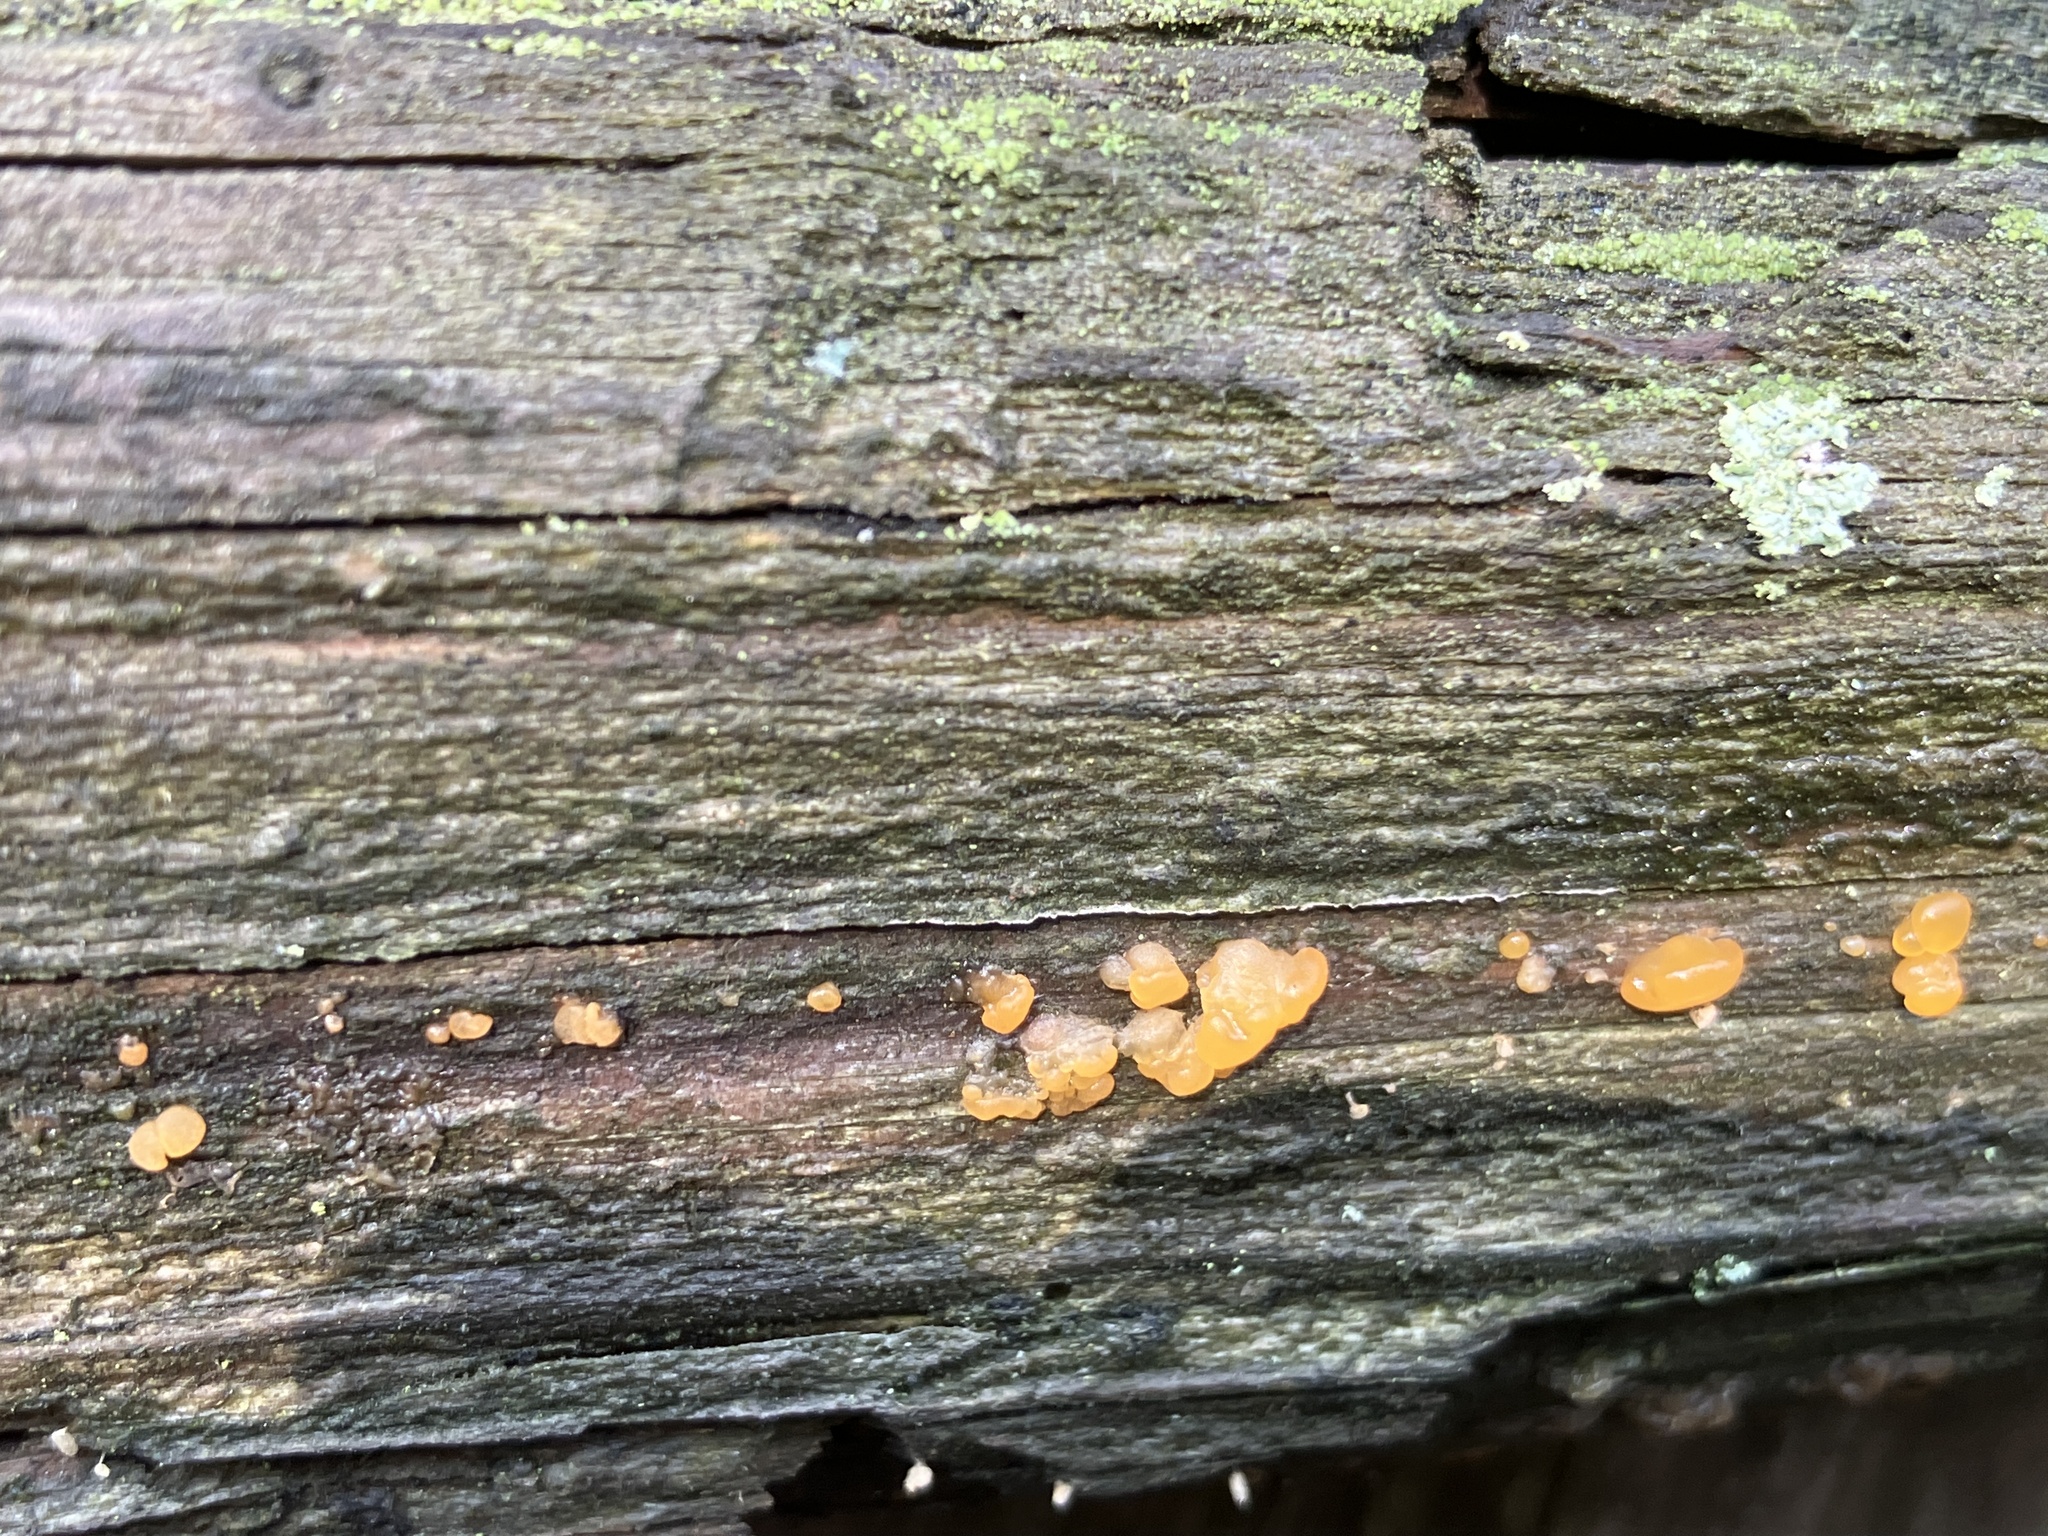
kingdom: Fungi
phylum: Basidiomycota
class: Dacrymycetes
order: Dacrymycetales
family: Dacrymycetaceae
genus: Dacrymyces
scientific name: Dacrymyces stillatus
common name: Common jelly spot
